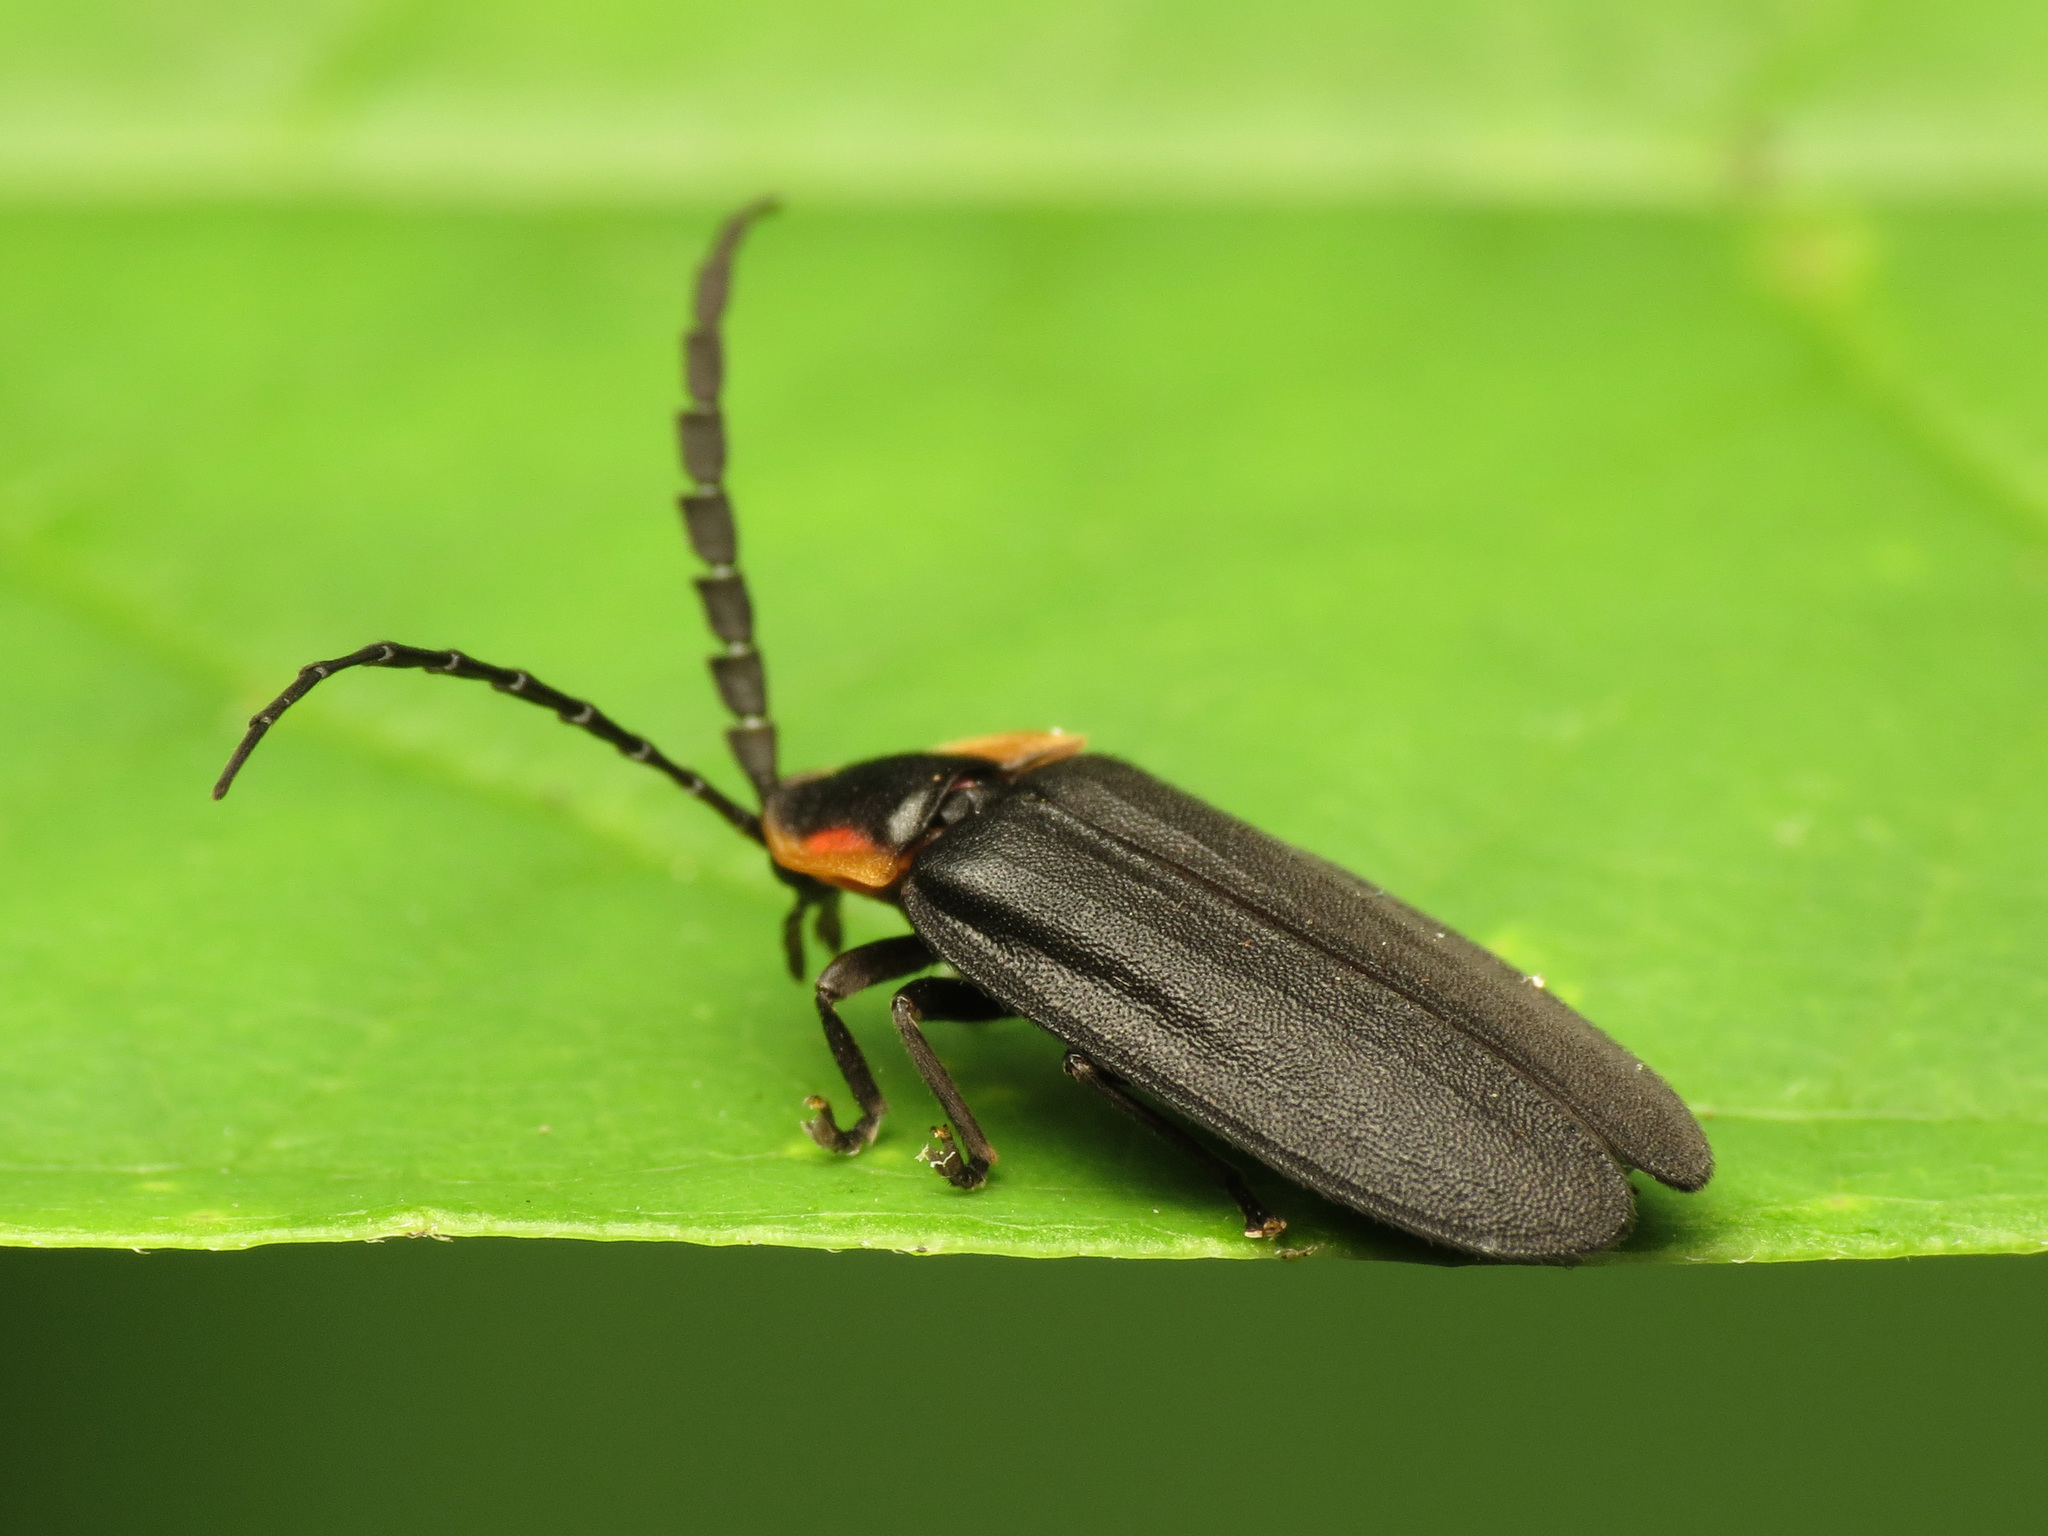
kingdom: Animalia
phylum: Arthropoda
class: Insecta
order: Coleoptera
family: Lampyridae
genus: Lucidota
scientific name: Lucidota atra
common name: Black firefly
